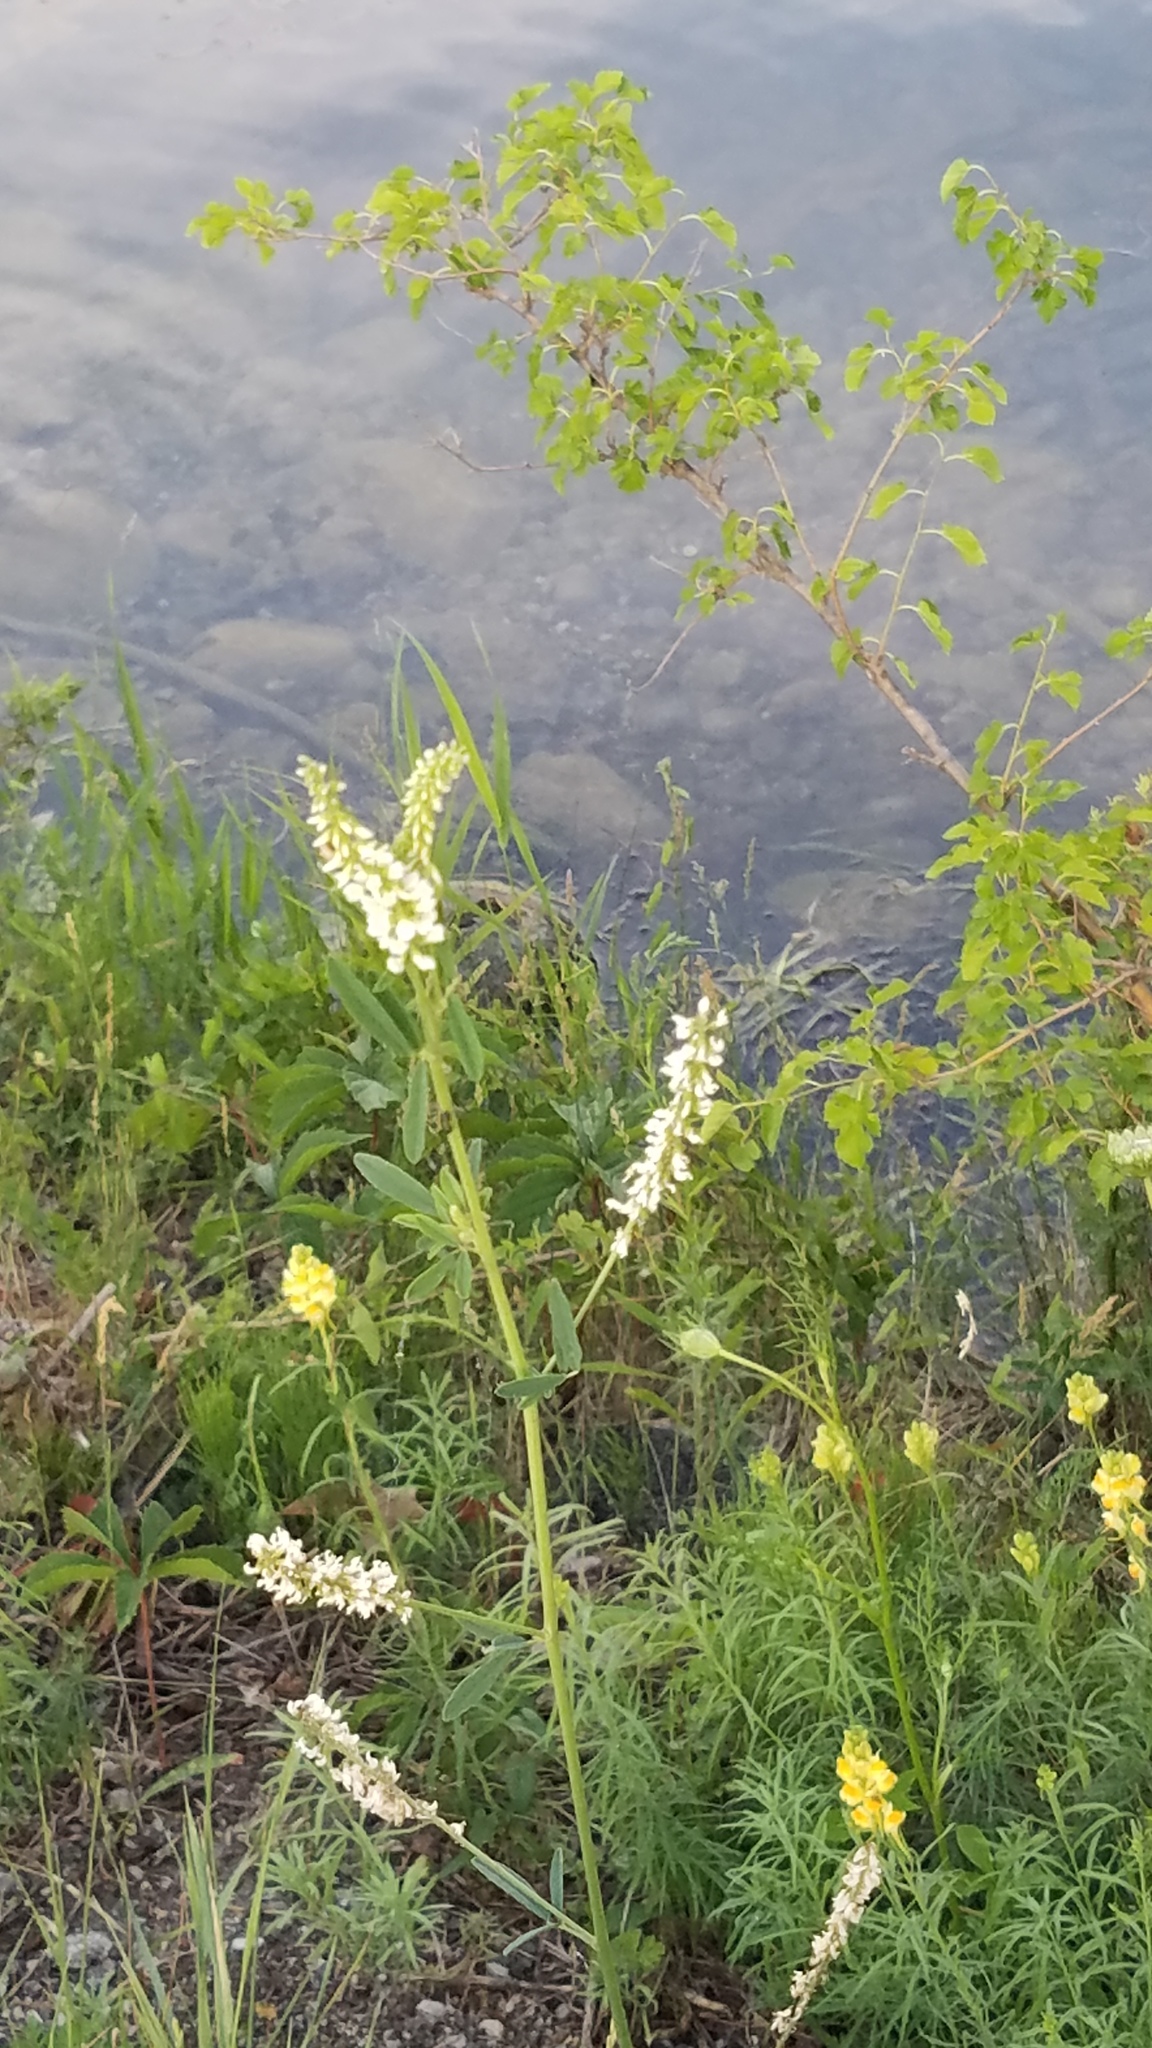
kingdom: Plantae
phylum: Tracheophyta
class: Magnoliopsida
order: Fabales
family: Fabaceae
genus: Melilotus
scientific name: Melilotus albus
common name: White melilot
